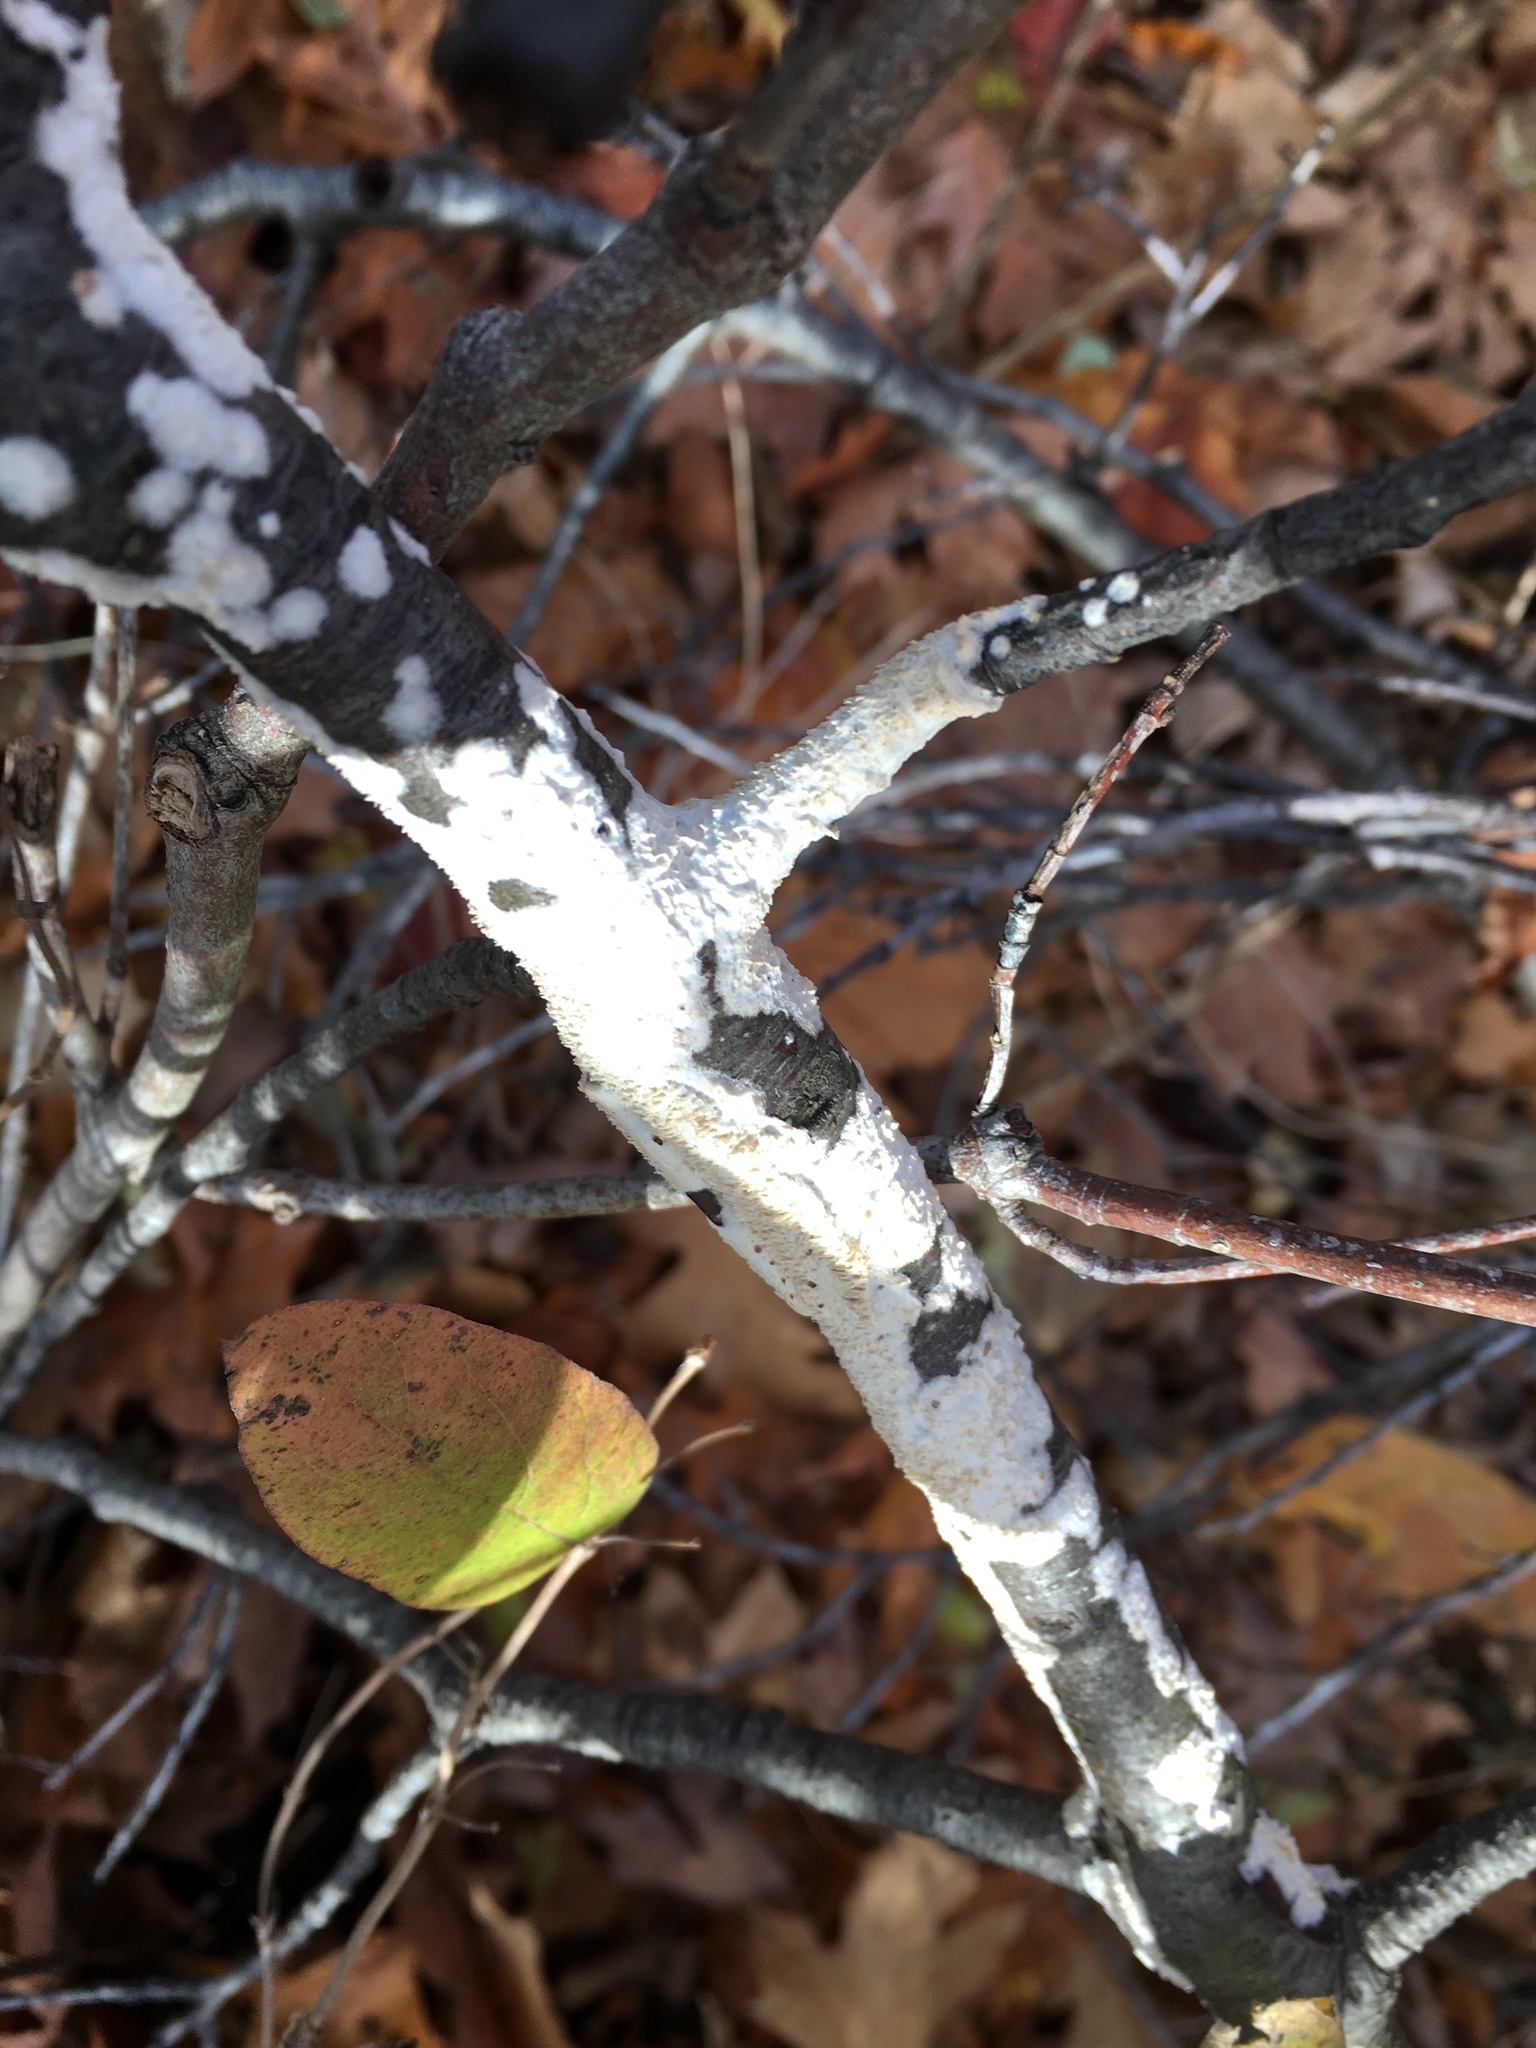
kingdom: Fungi
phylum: Basidiomycota
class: Agaricomycetes
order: Polyporales
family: Irpicaceae
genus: Irpex
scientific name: Irpex lacteus
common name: Milk-white toothed polypore
